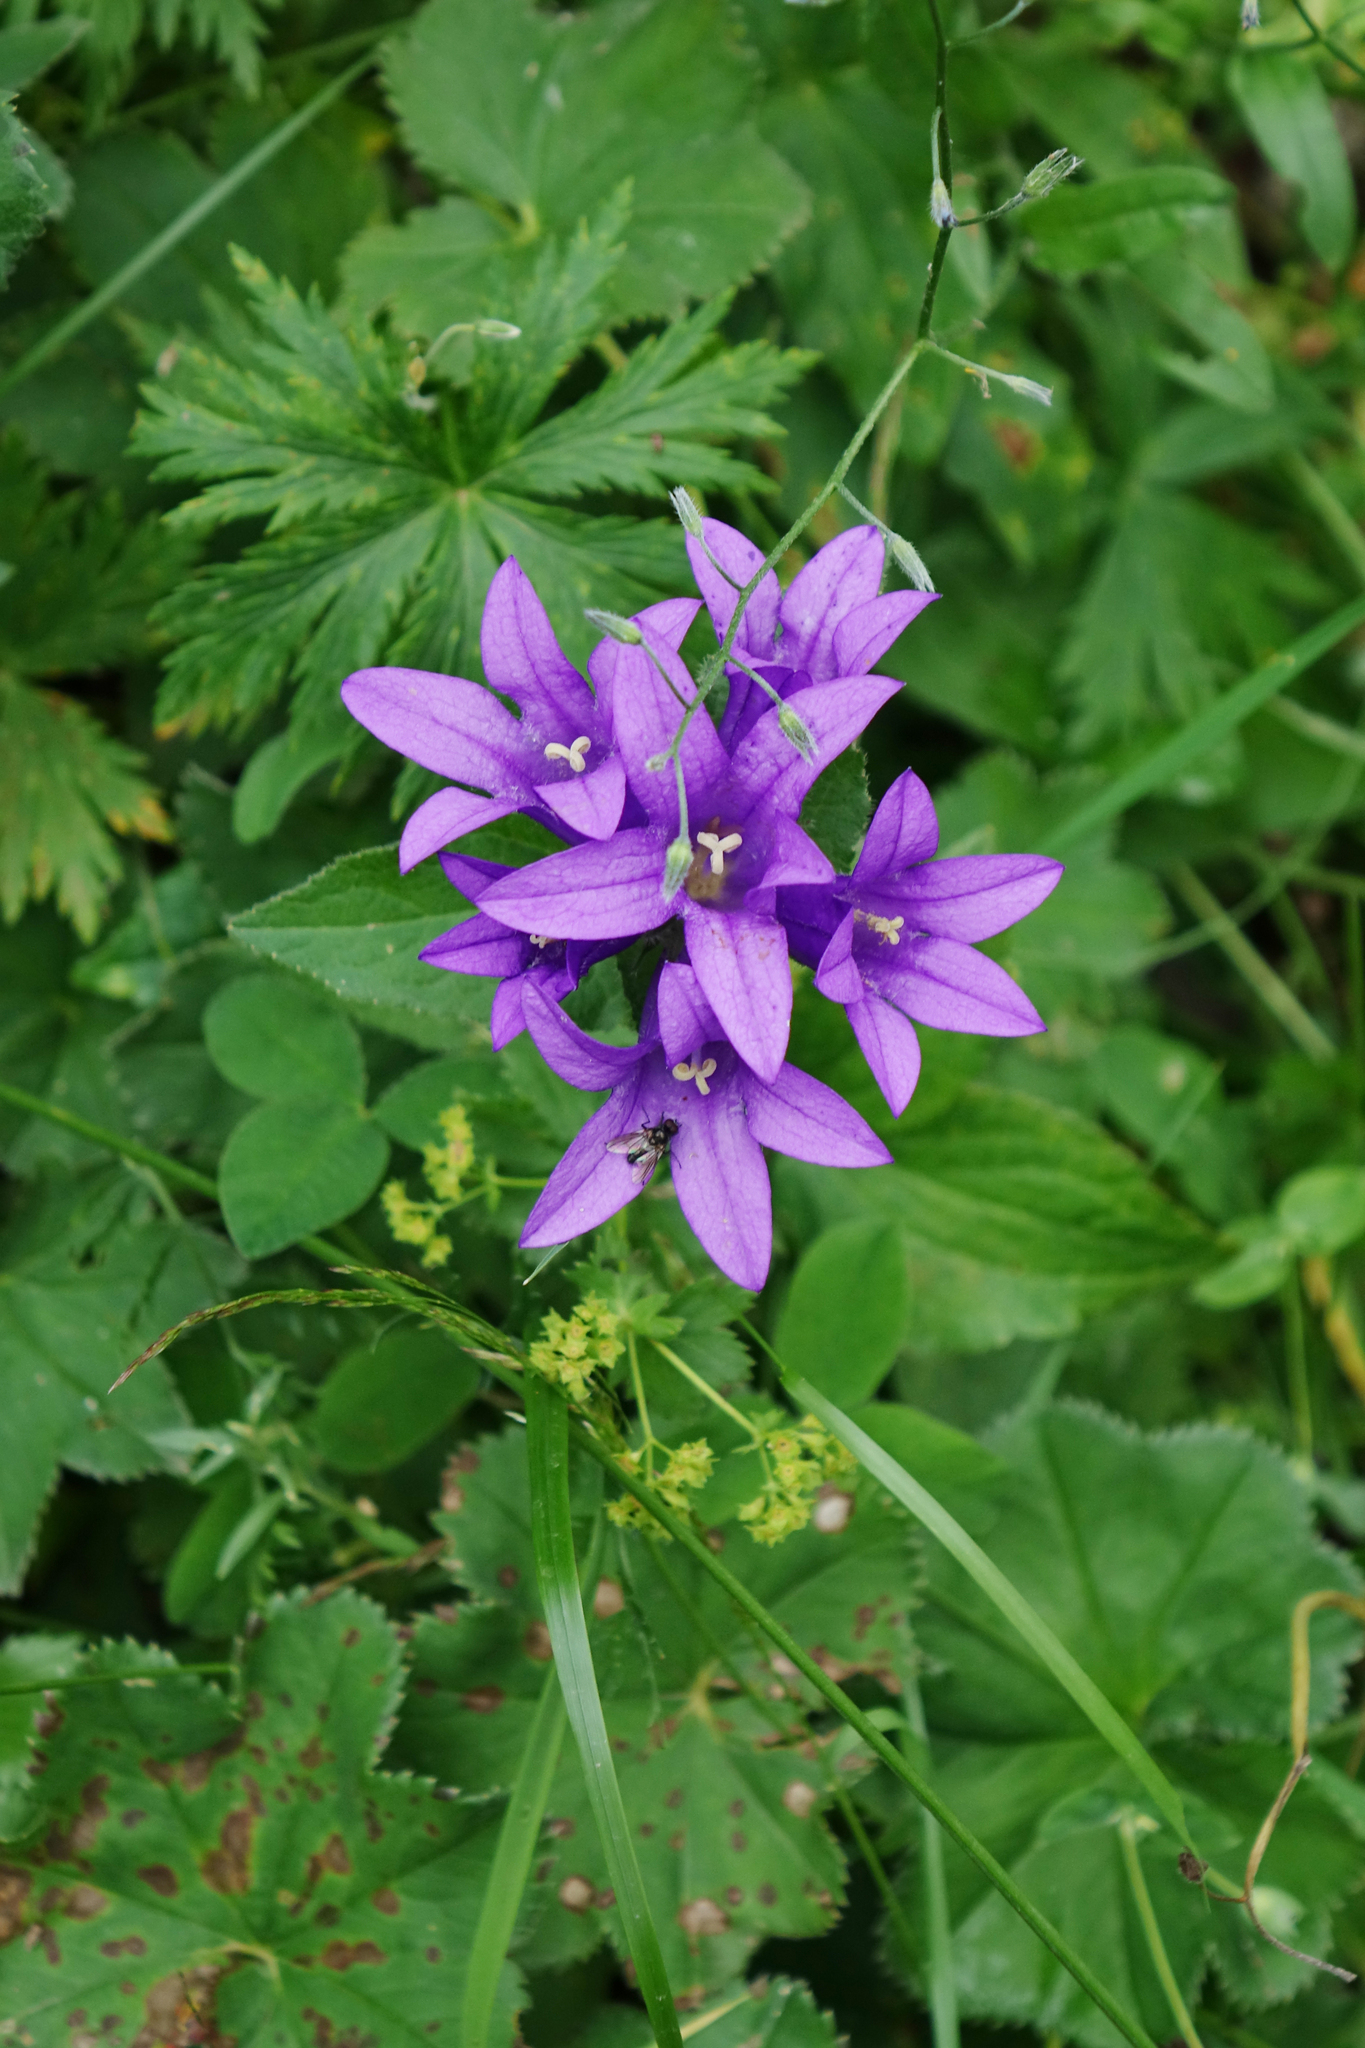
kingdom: Plantae
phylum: Tracheophyta
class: Magnoliopsida
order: Asterales
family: Campanulaceae
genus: Campanula
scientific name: Campanula glomerata
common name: Clustered bellflower
